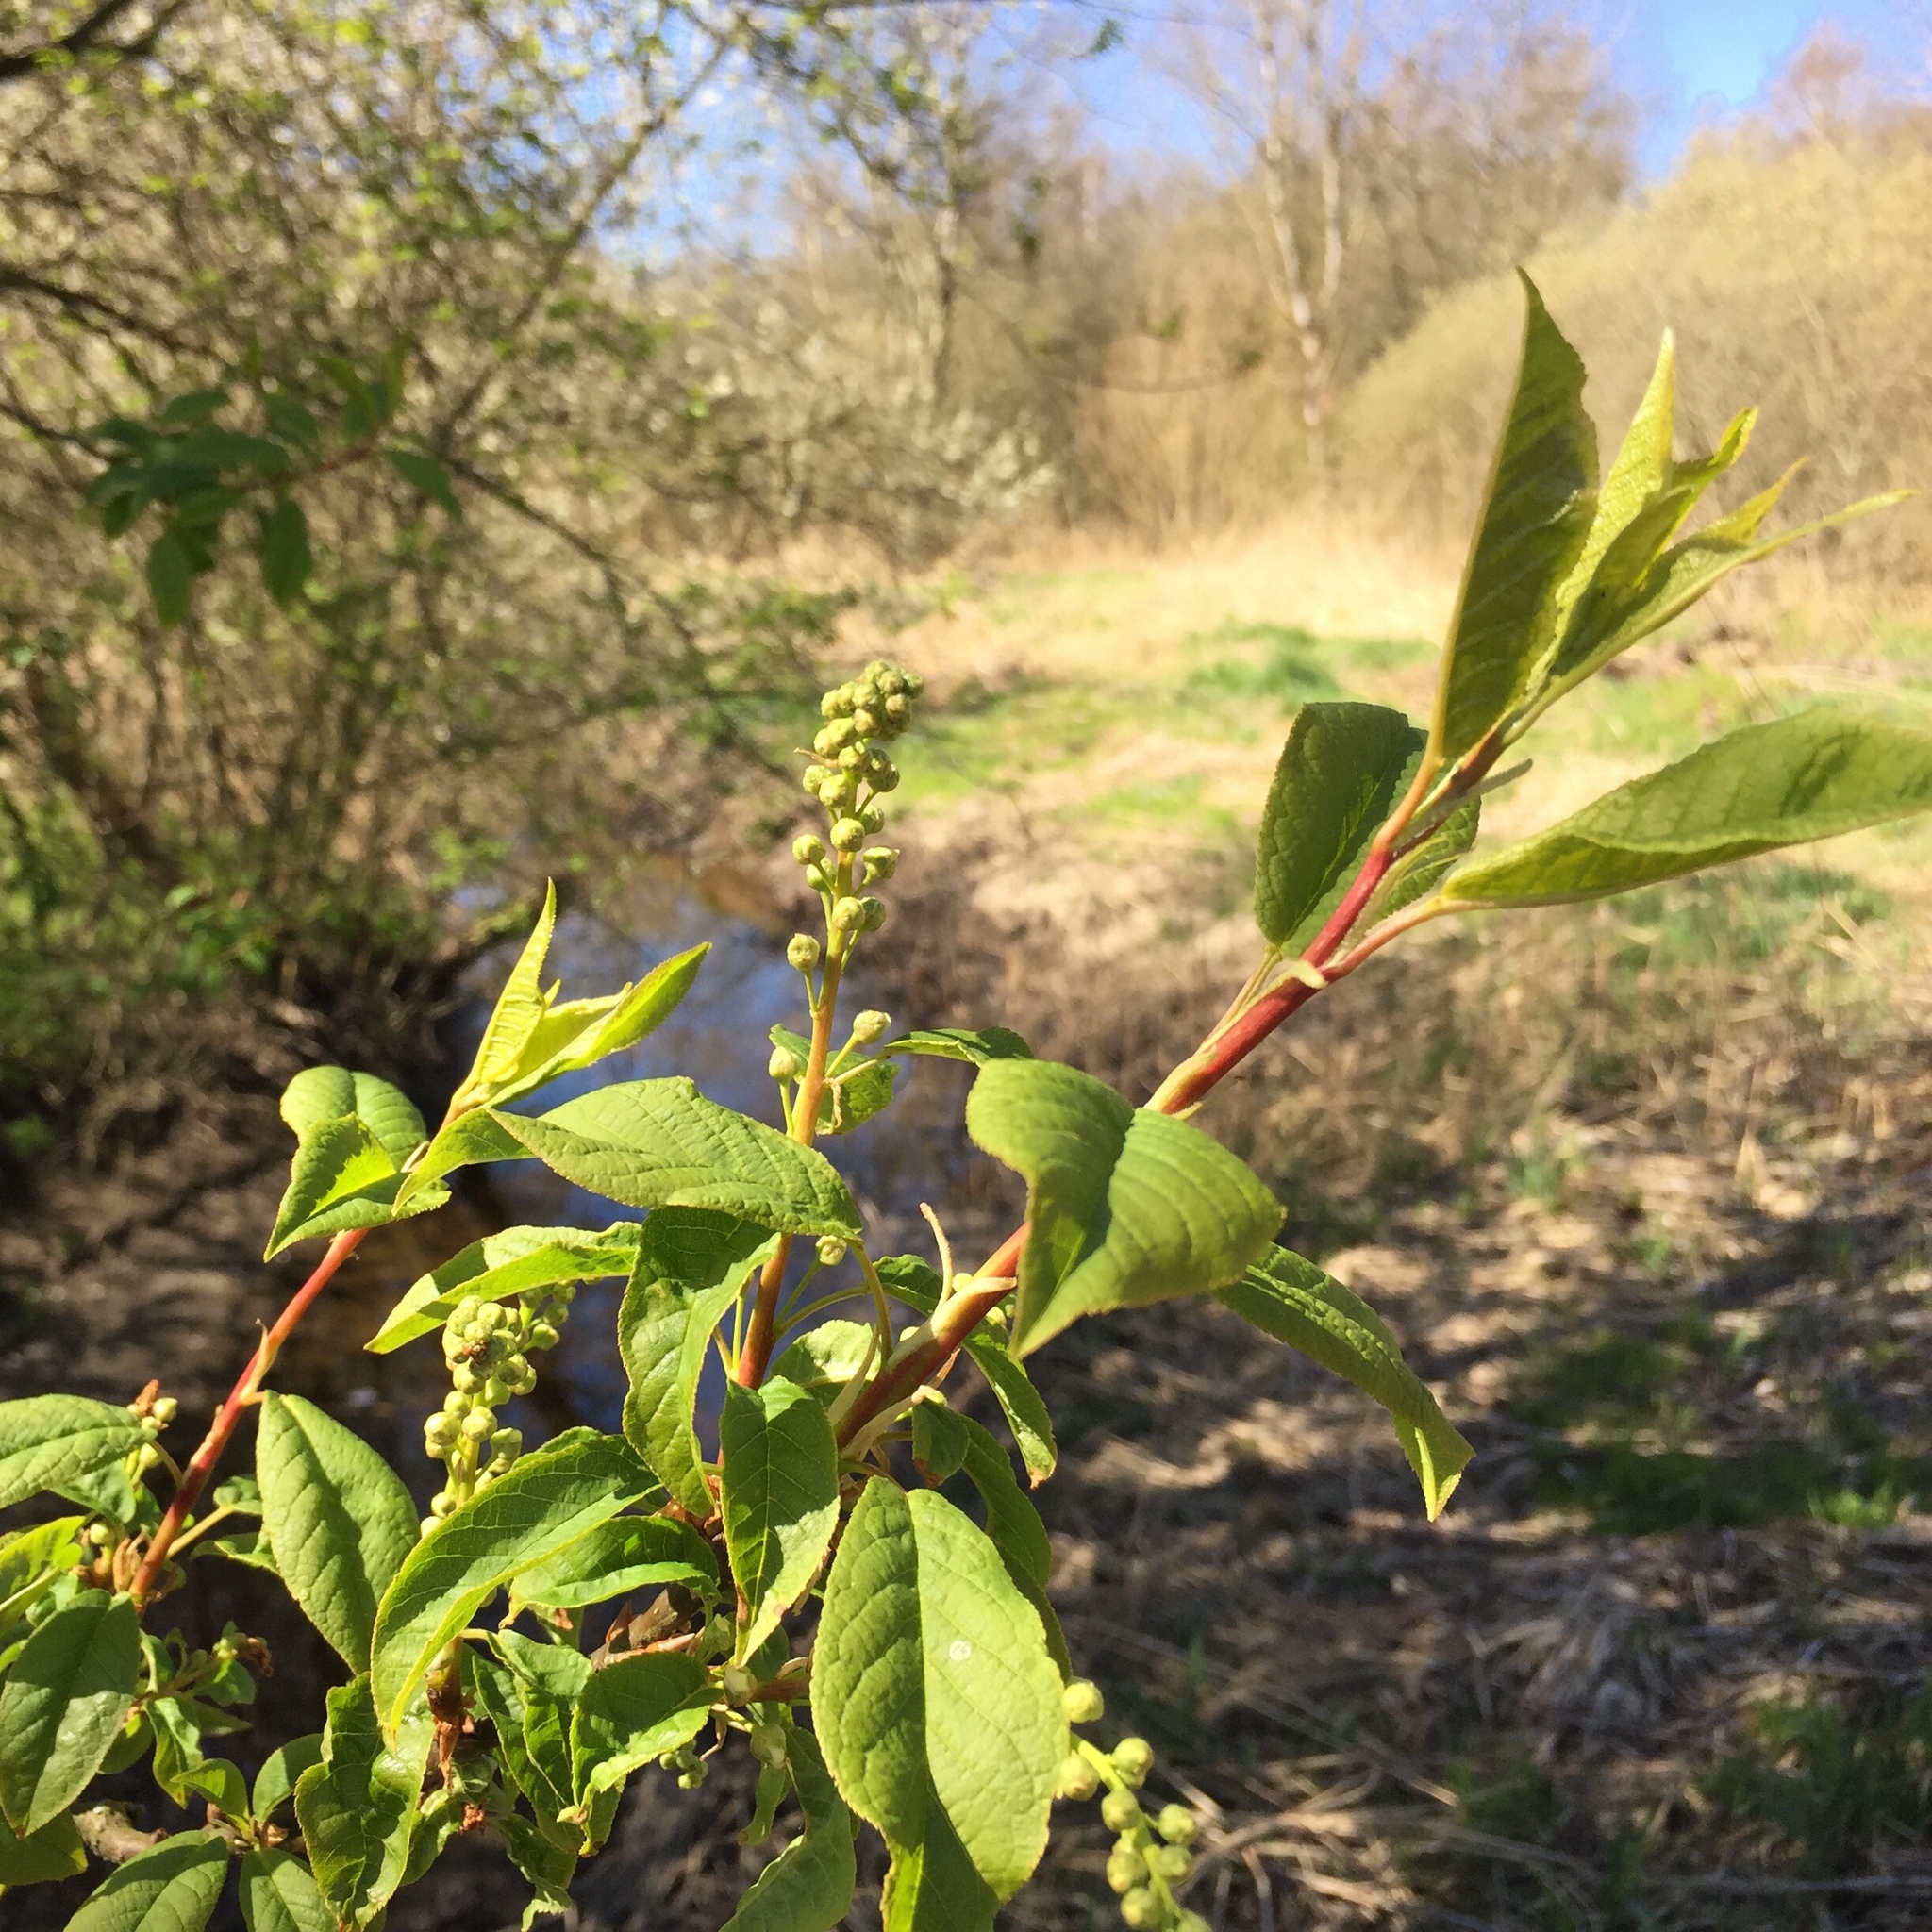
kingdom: Plantae
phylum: Tracheophyta
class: Magnoliopsida
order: Rosales
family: Rosaceae
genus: Prunus
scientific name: Prunus padus
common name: Bird cherry
